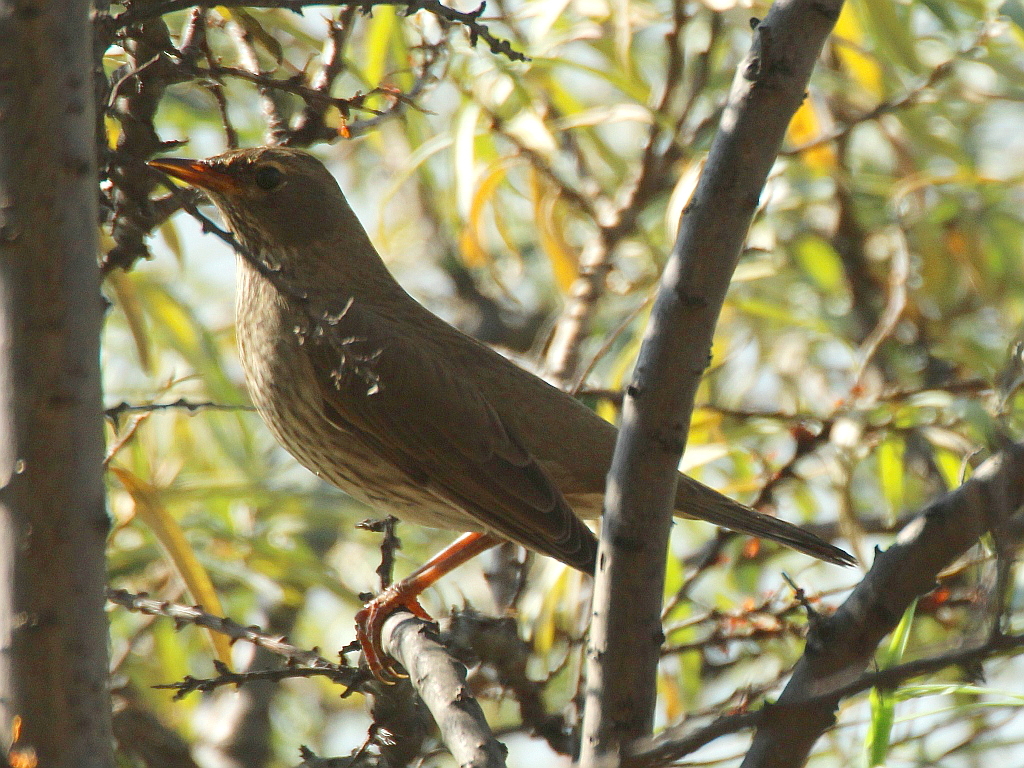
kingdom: Animalia
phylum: Chordata
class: Aves
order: Passeriformes
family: Turdidae
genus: Turdus
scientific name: Turdus atrogularis
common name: Black-throated thrush
